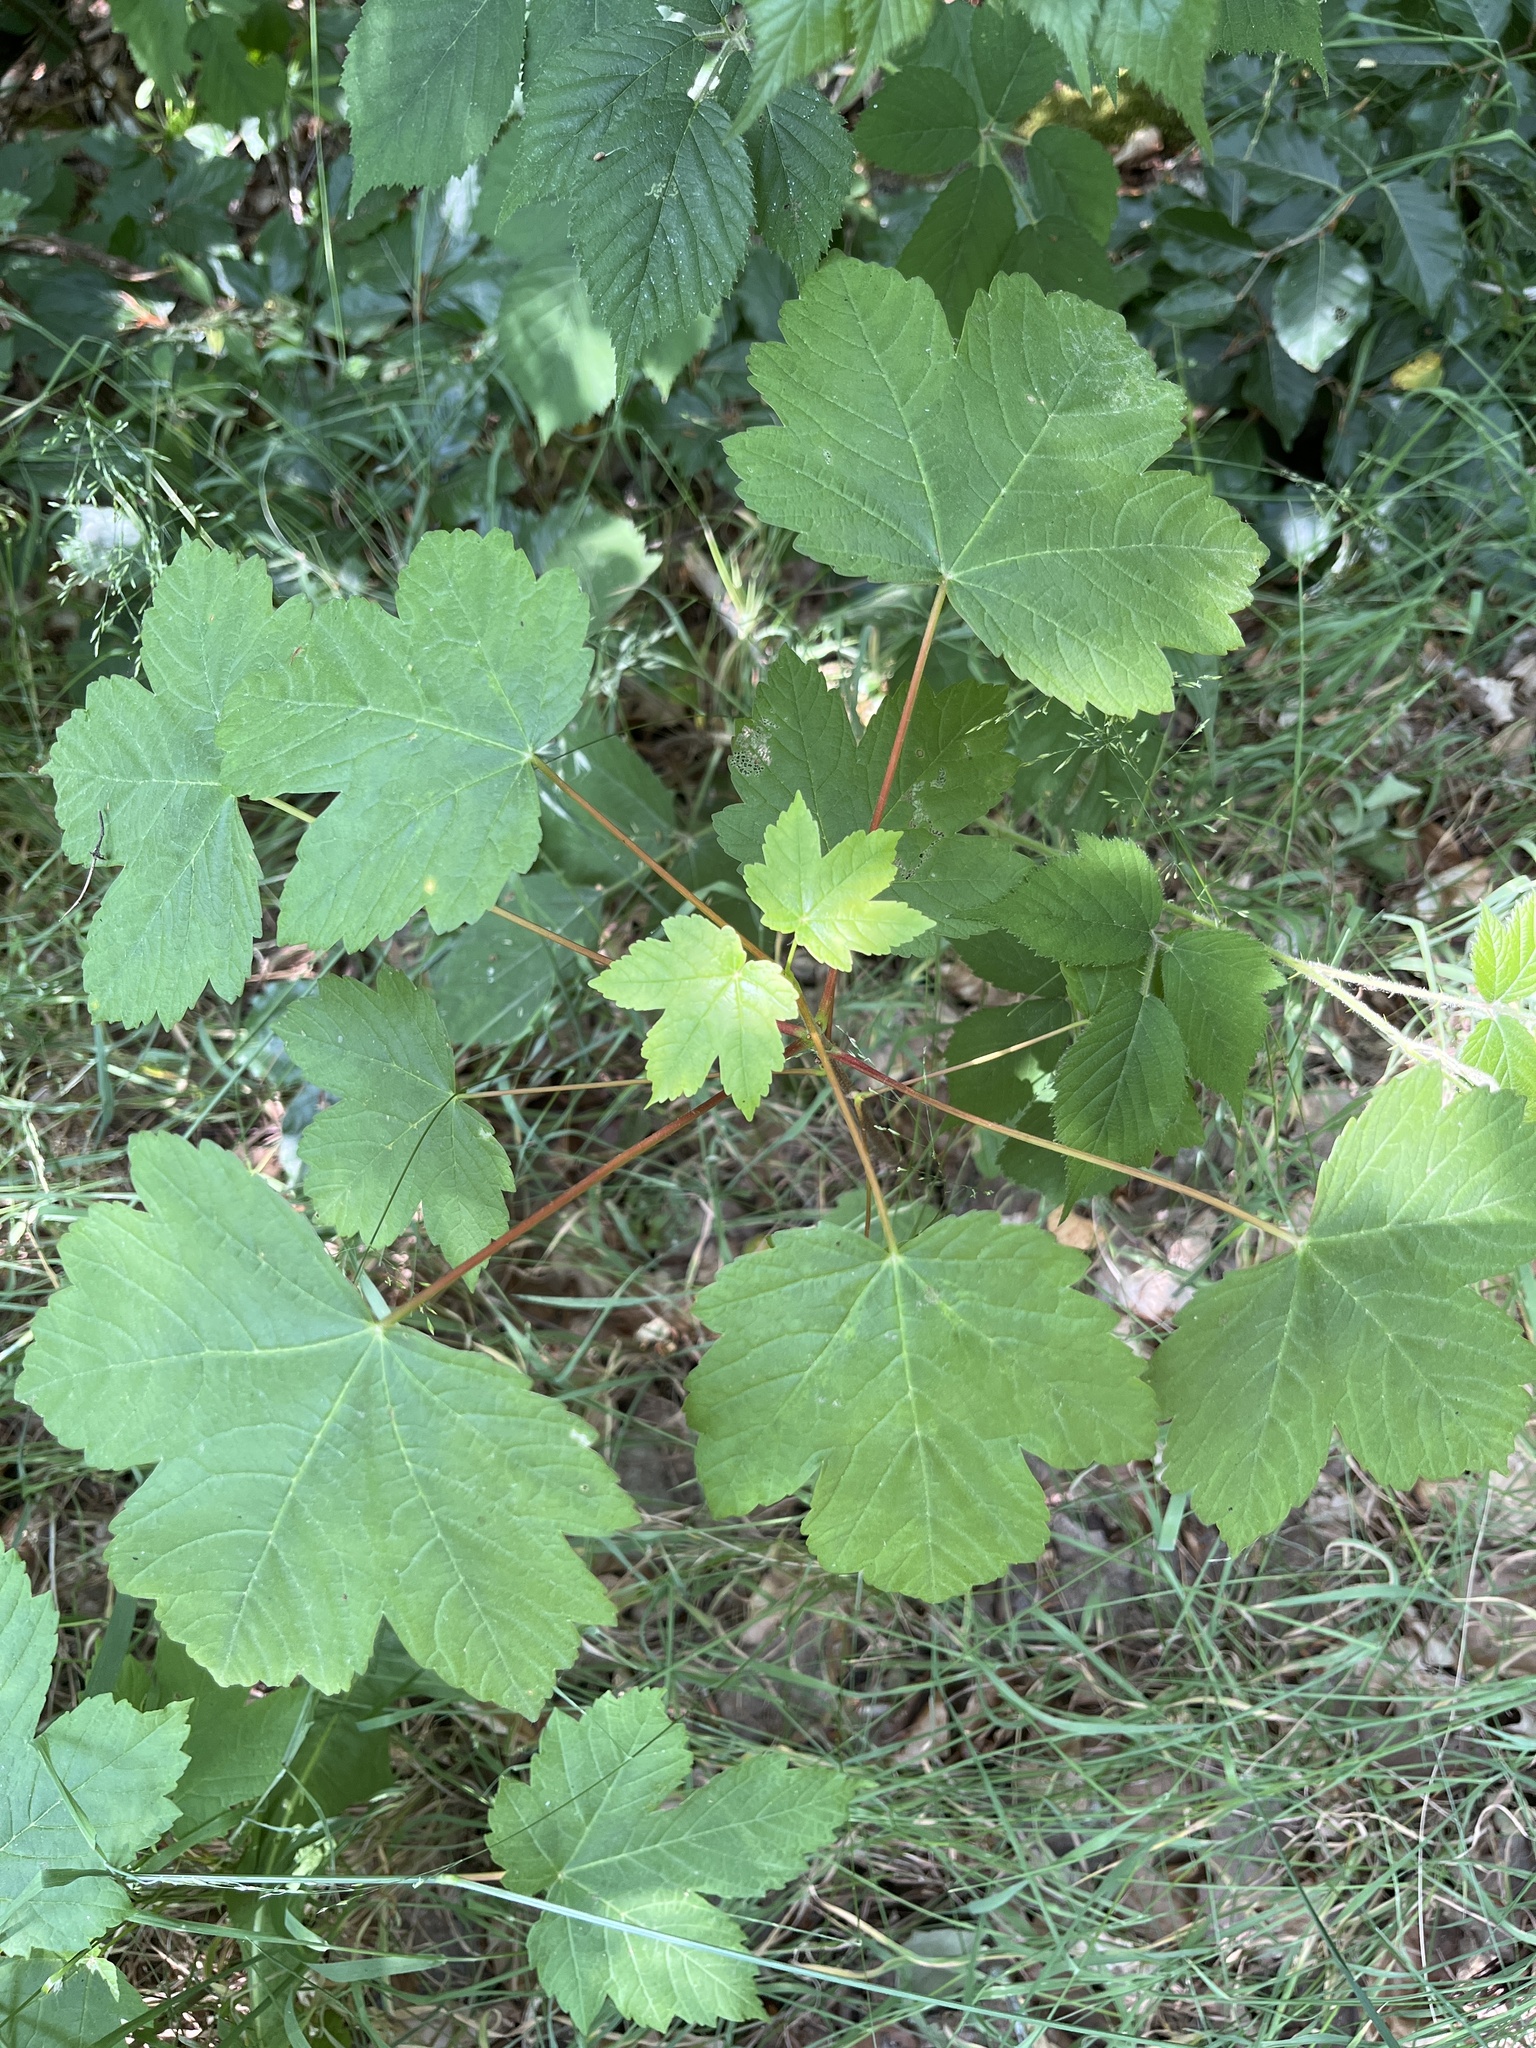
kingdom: Plantae
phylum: Tracheophyta
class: Magnoliopsida
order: Sapindales
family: Sapindaceae
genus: Acer
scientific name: Acer pseudoplatanus
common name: Sycamore
